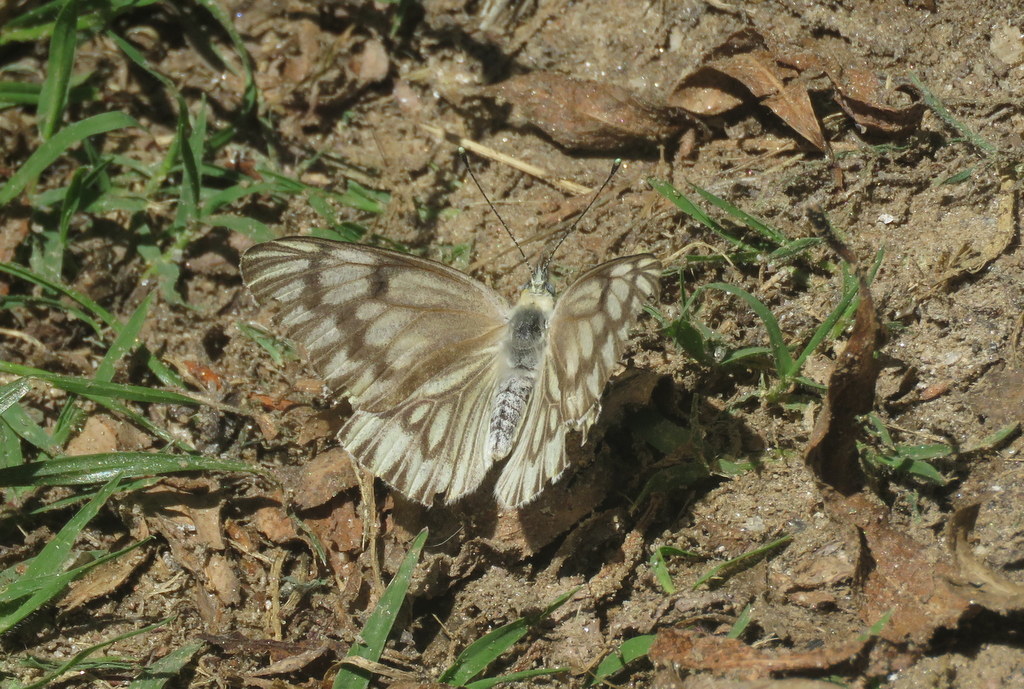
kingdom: Animalia
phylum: Arthropoda
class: Insecta
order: Lepidoptera
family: Pieridae
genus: Tatochila
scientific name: Tatochila mercedis
